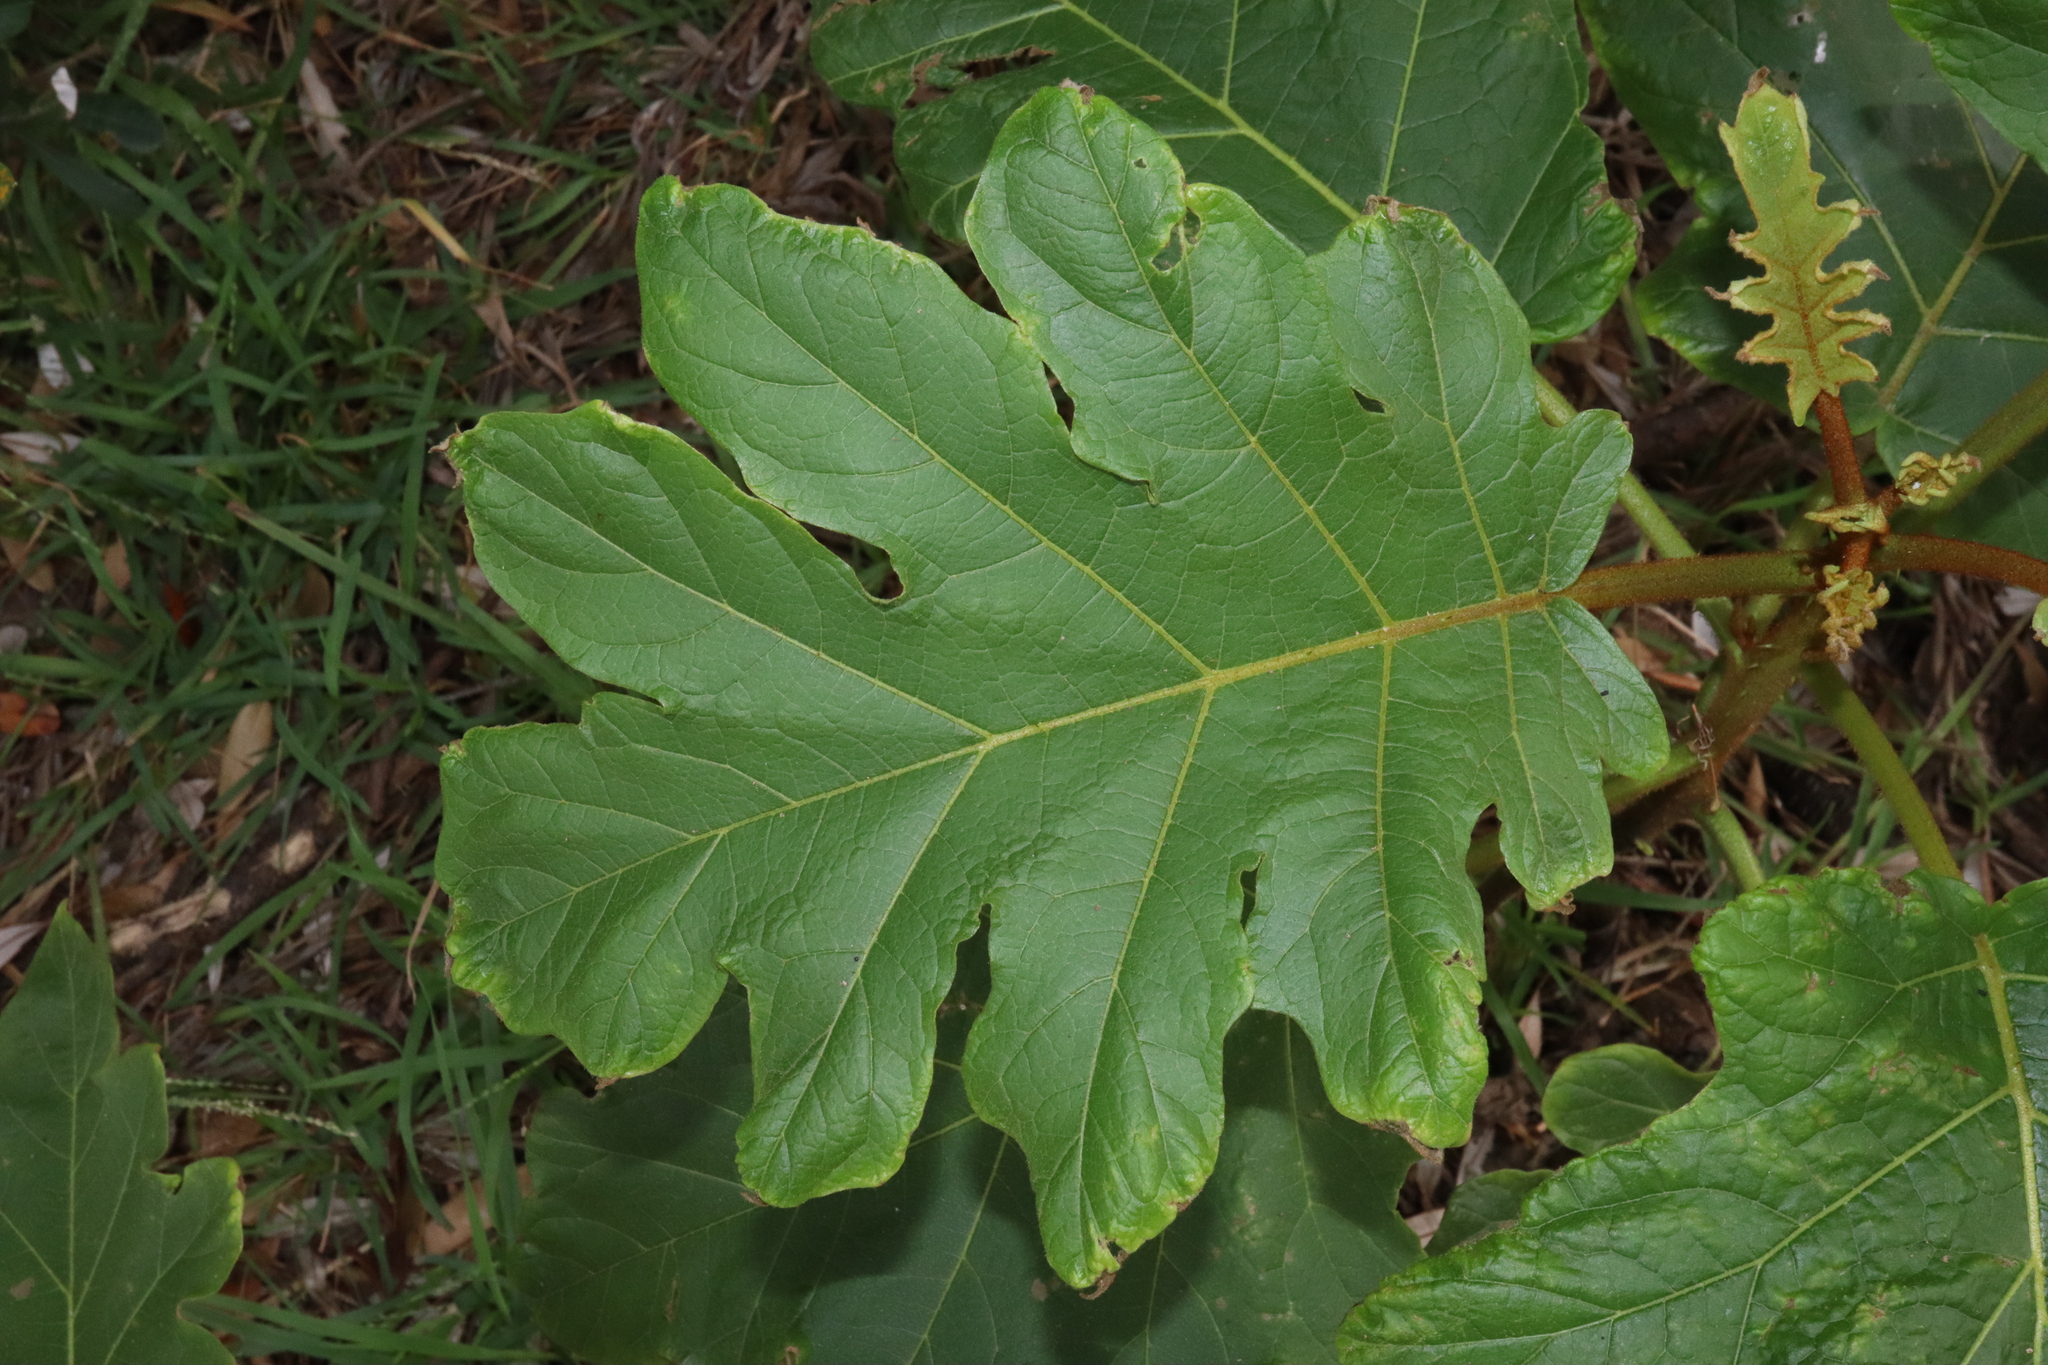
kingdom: Plantae
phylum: Tracheophyta
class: Magnoliopsida
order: Solanales
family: Solanaceae
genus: Solanum
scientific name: Solanum chrysotrichum
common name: Nightshade
